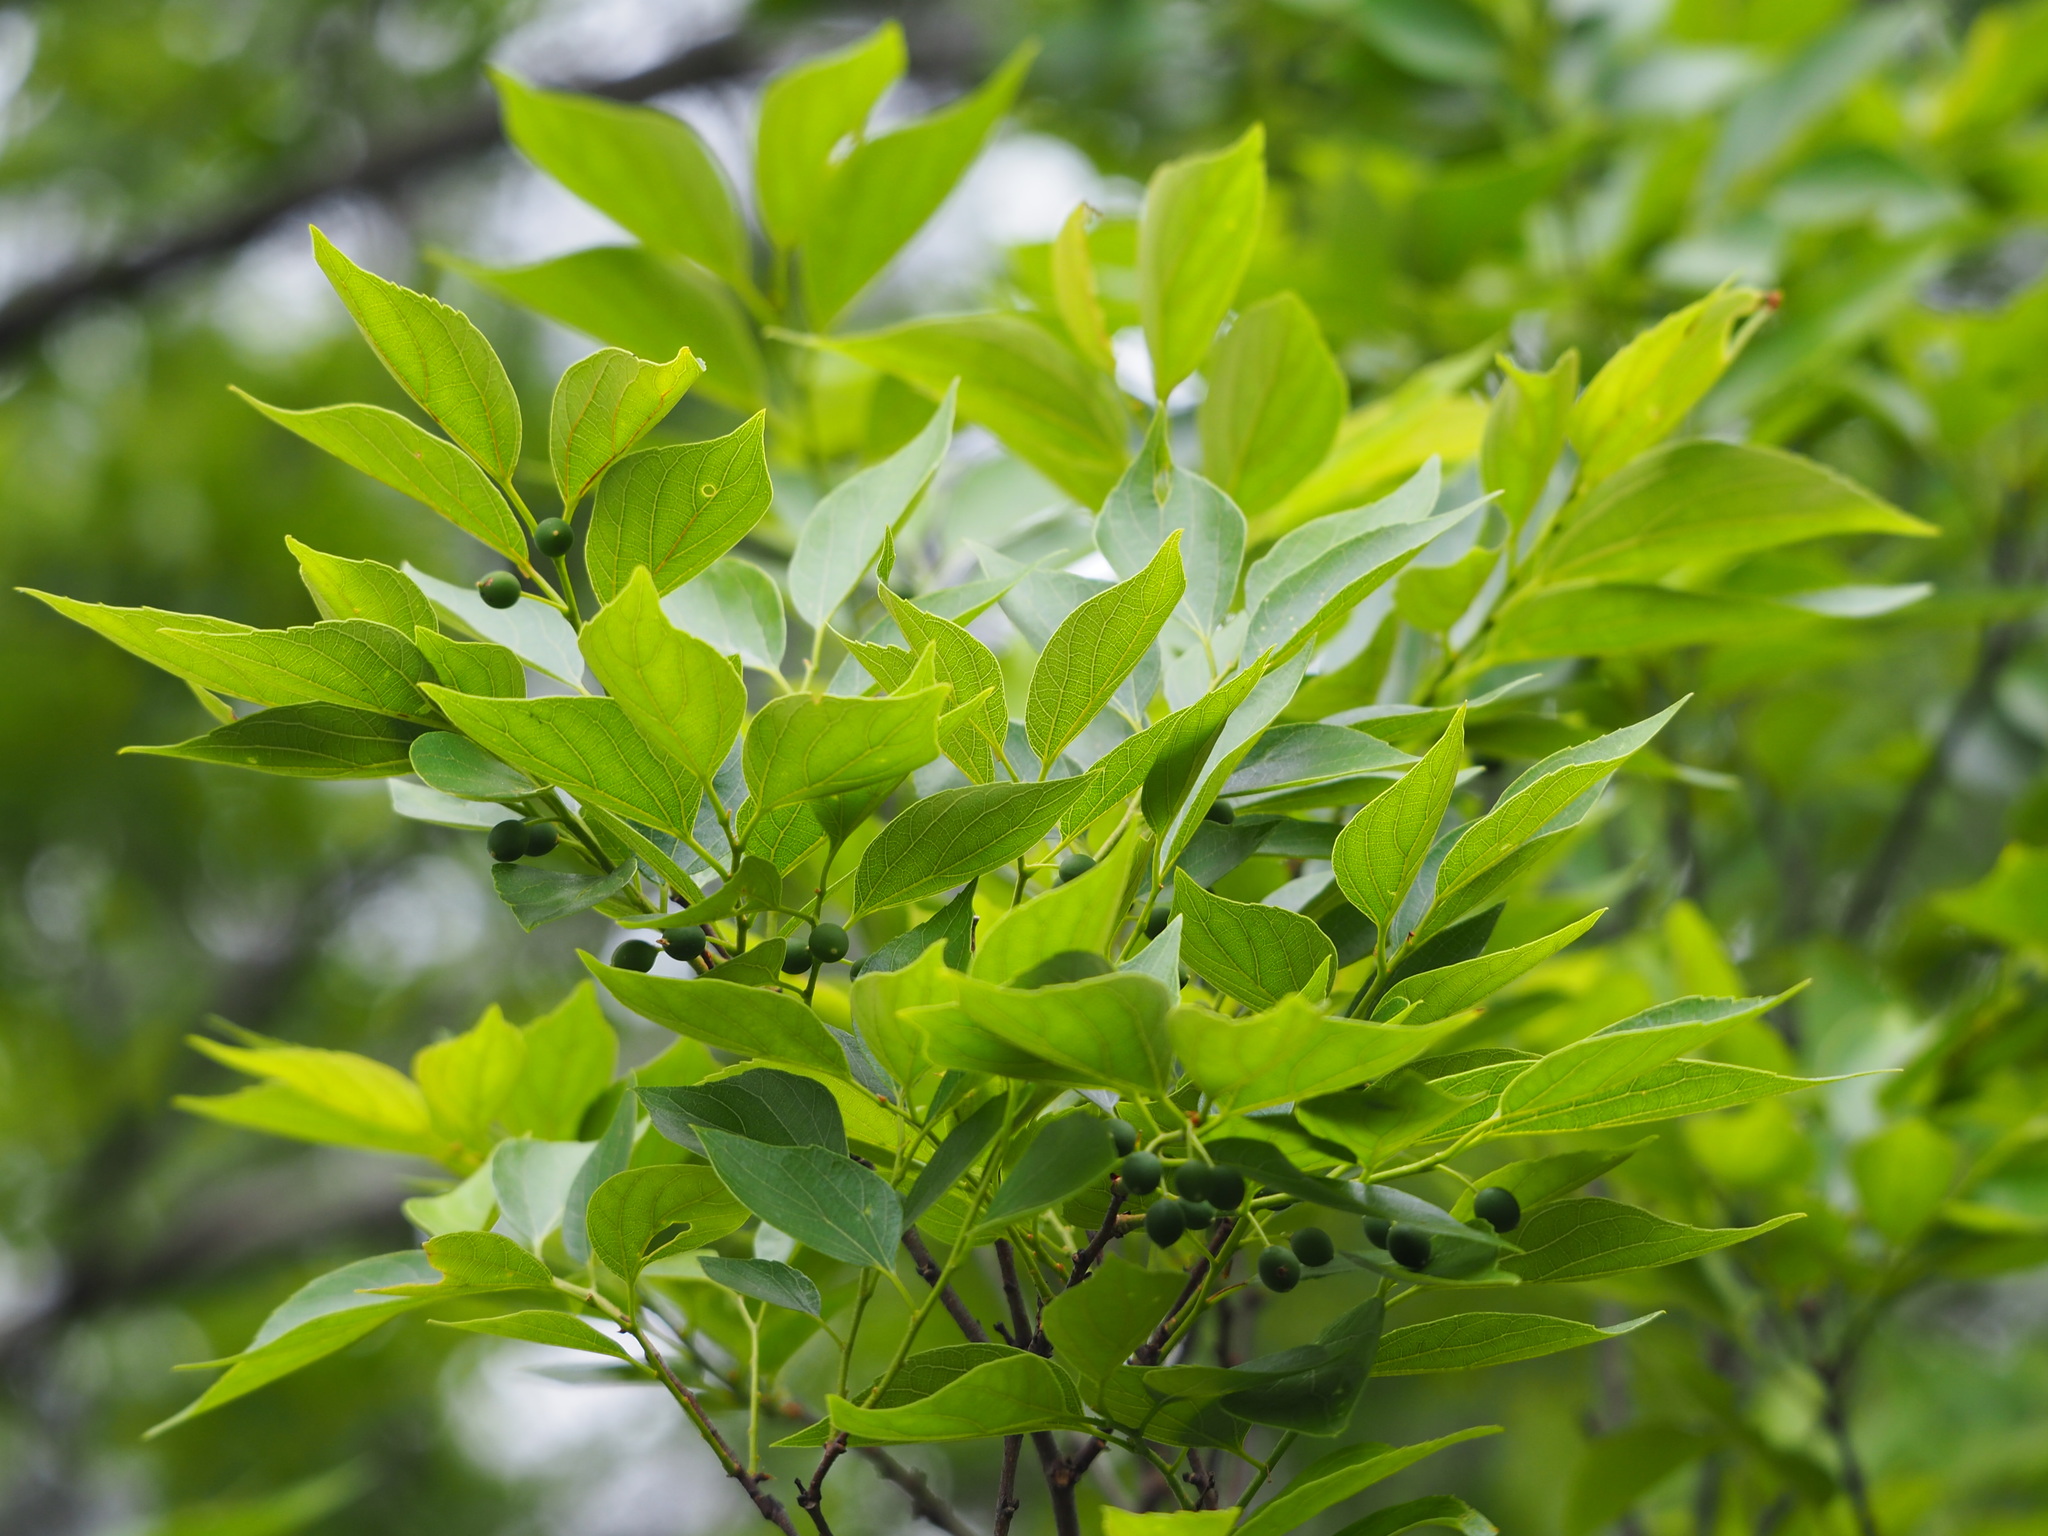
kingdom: Plantae
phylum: Tracheophyta
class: Magnoliopsida
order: Rosales
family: Cannabaceae
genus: Celtis
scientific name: Celtis sinensis
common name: Chinese hackberry
